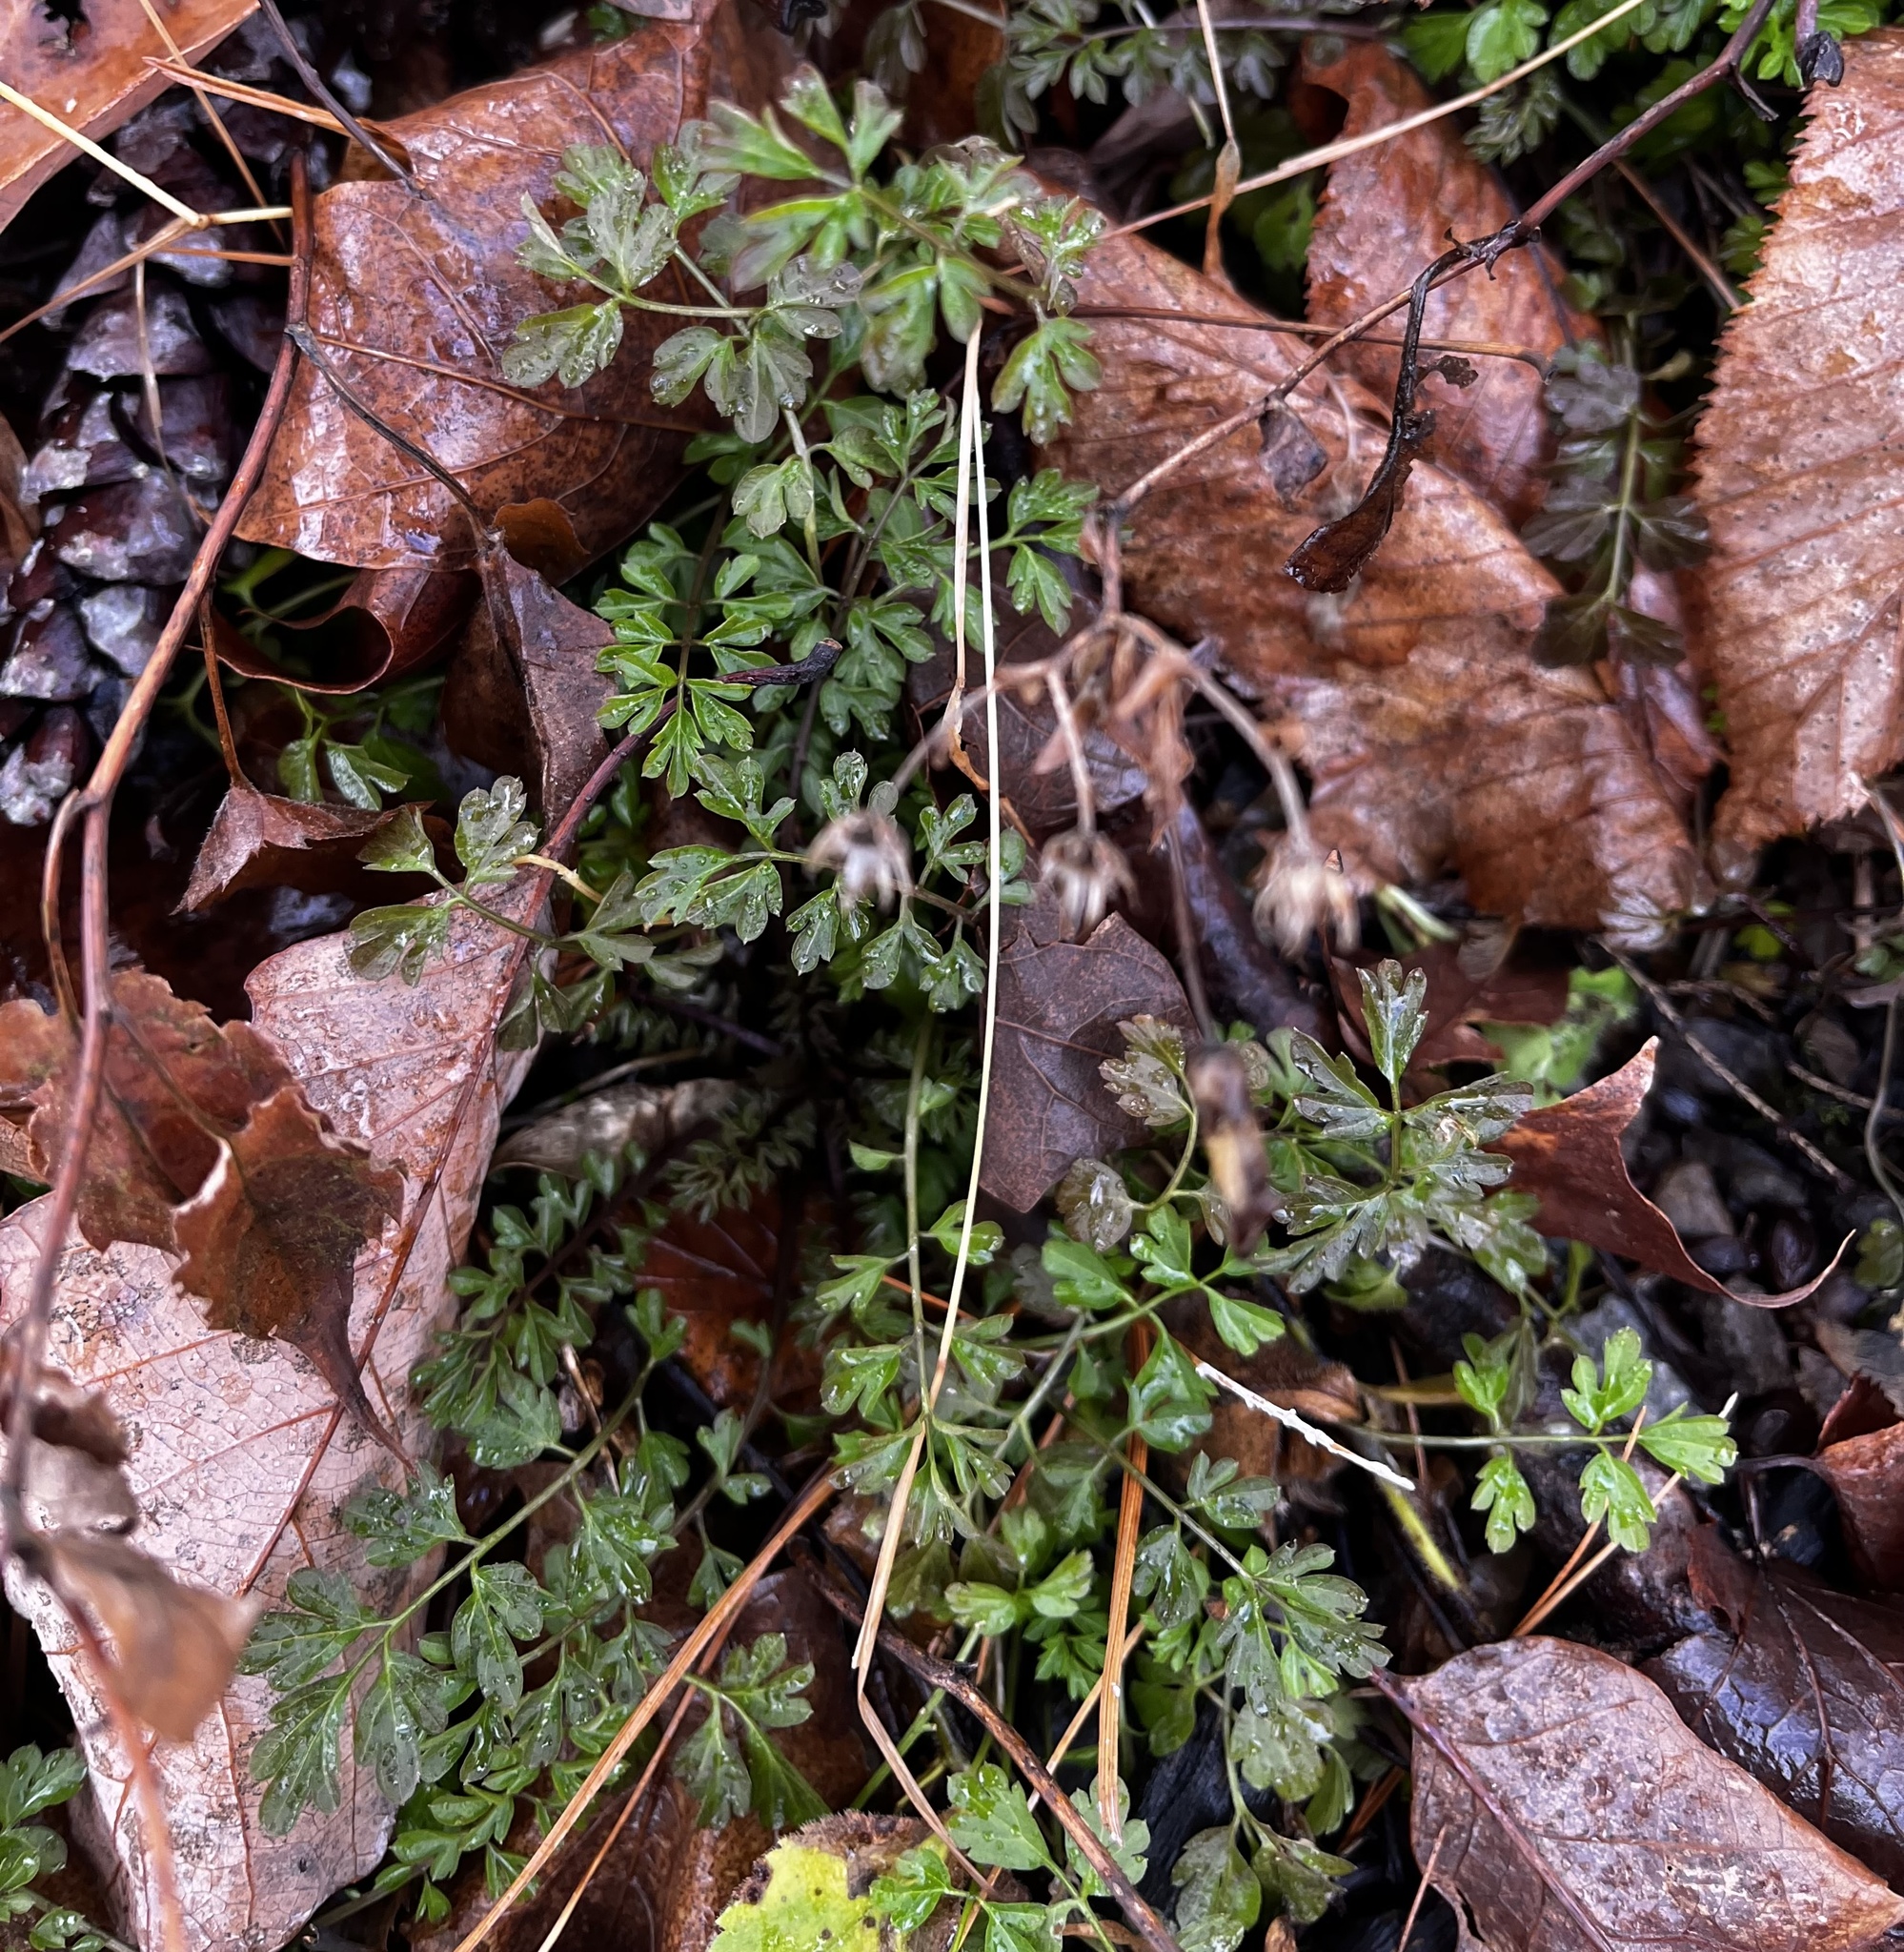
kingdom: Plantae
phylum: Tracheophyta
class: Magnoliopsida
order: Brassicales
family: Brassicaceae
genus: Cardamine
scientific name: Cardamine impatiens
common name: Narrow-leaved bitter-cress
